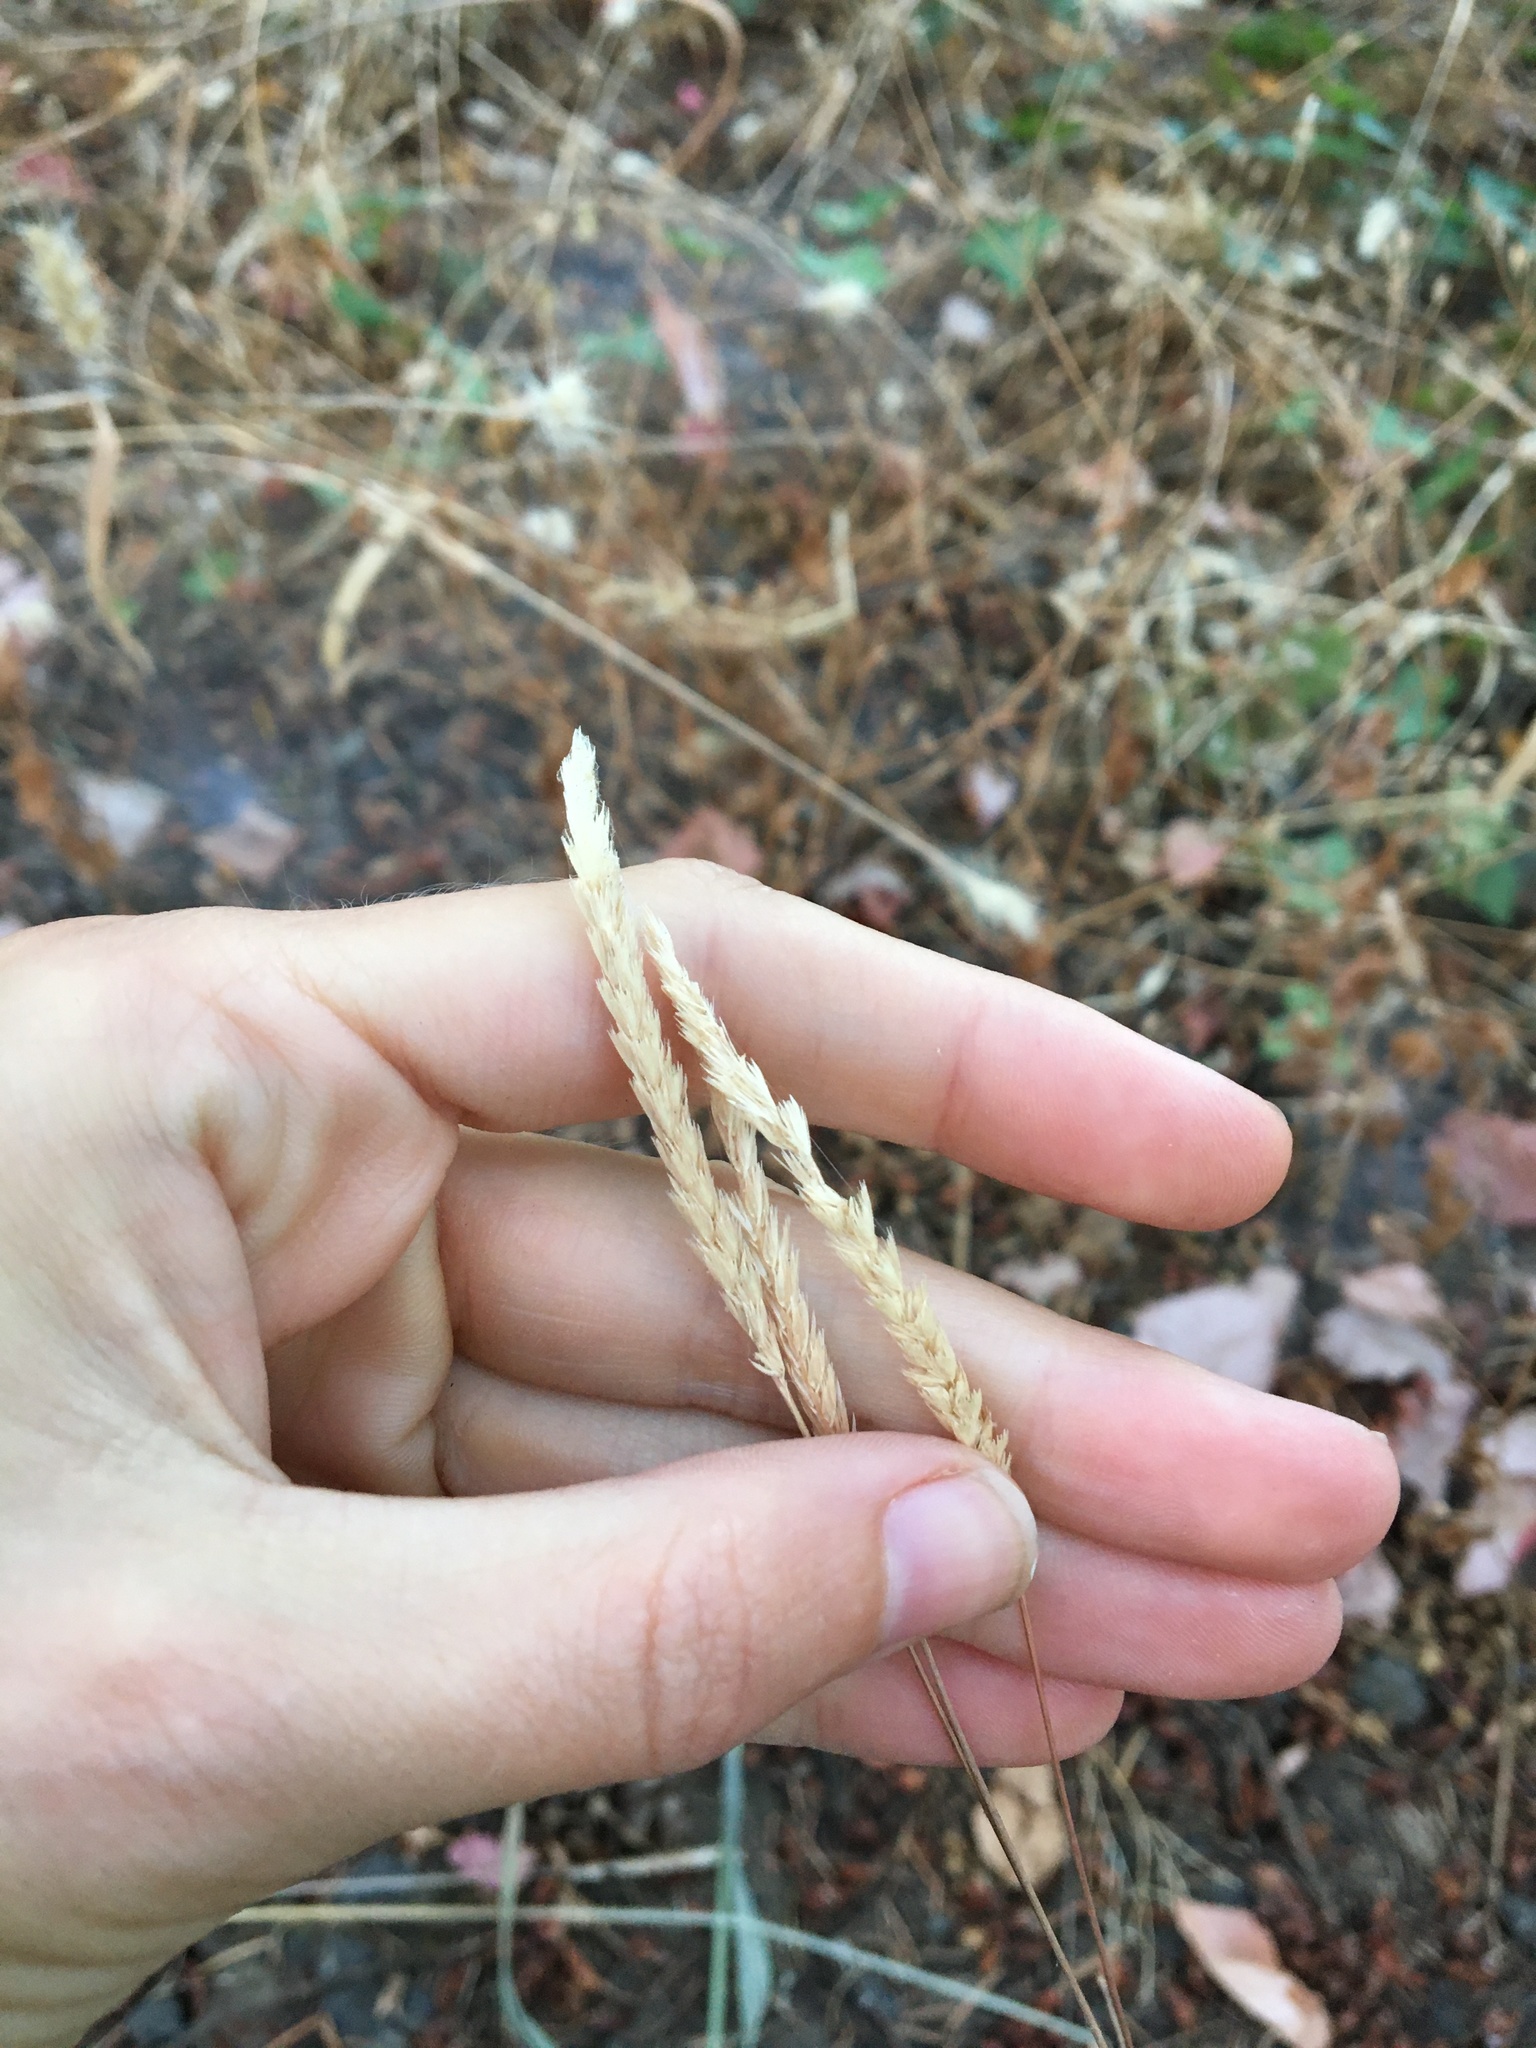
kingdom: Plantae
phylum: Tracheophyta
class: Liliopsida
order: Poales
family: Poaceae
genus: Cynosurus
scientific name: Cynosurus cristatus
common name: Crested dog's-tail
